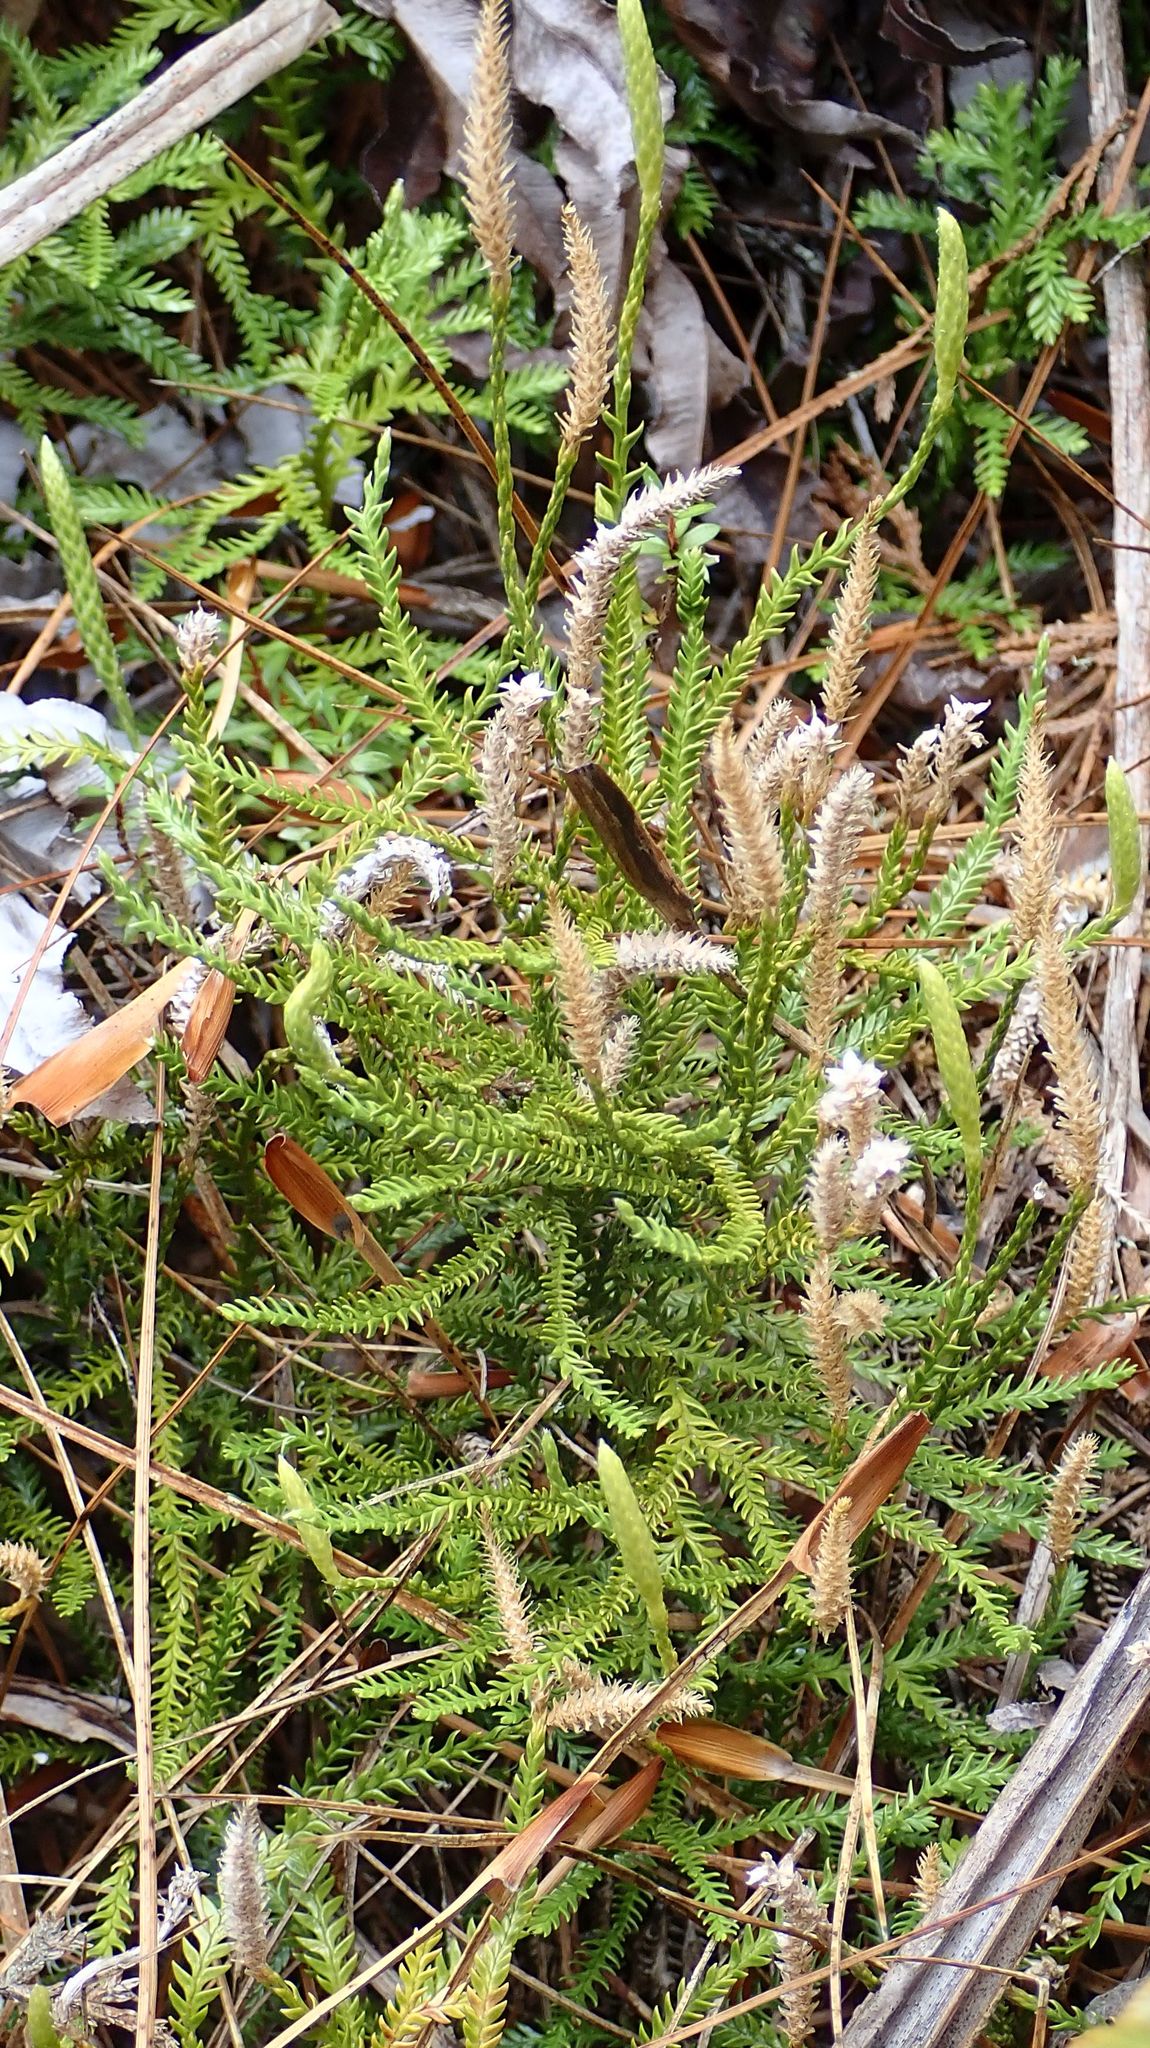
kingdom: Plantae
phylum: Tracheophyta
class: Lycopodiopsida
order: Lycopodiales
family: Lycopodiaceae
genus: Diphasium
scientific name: Diphasium scariosum
